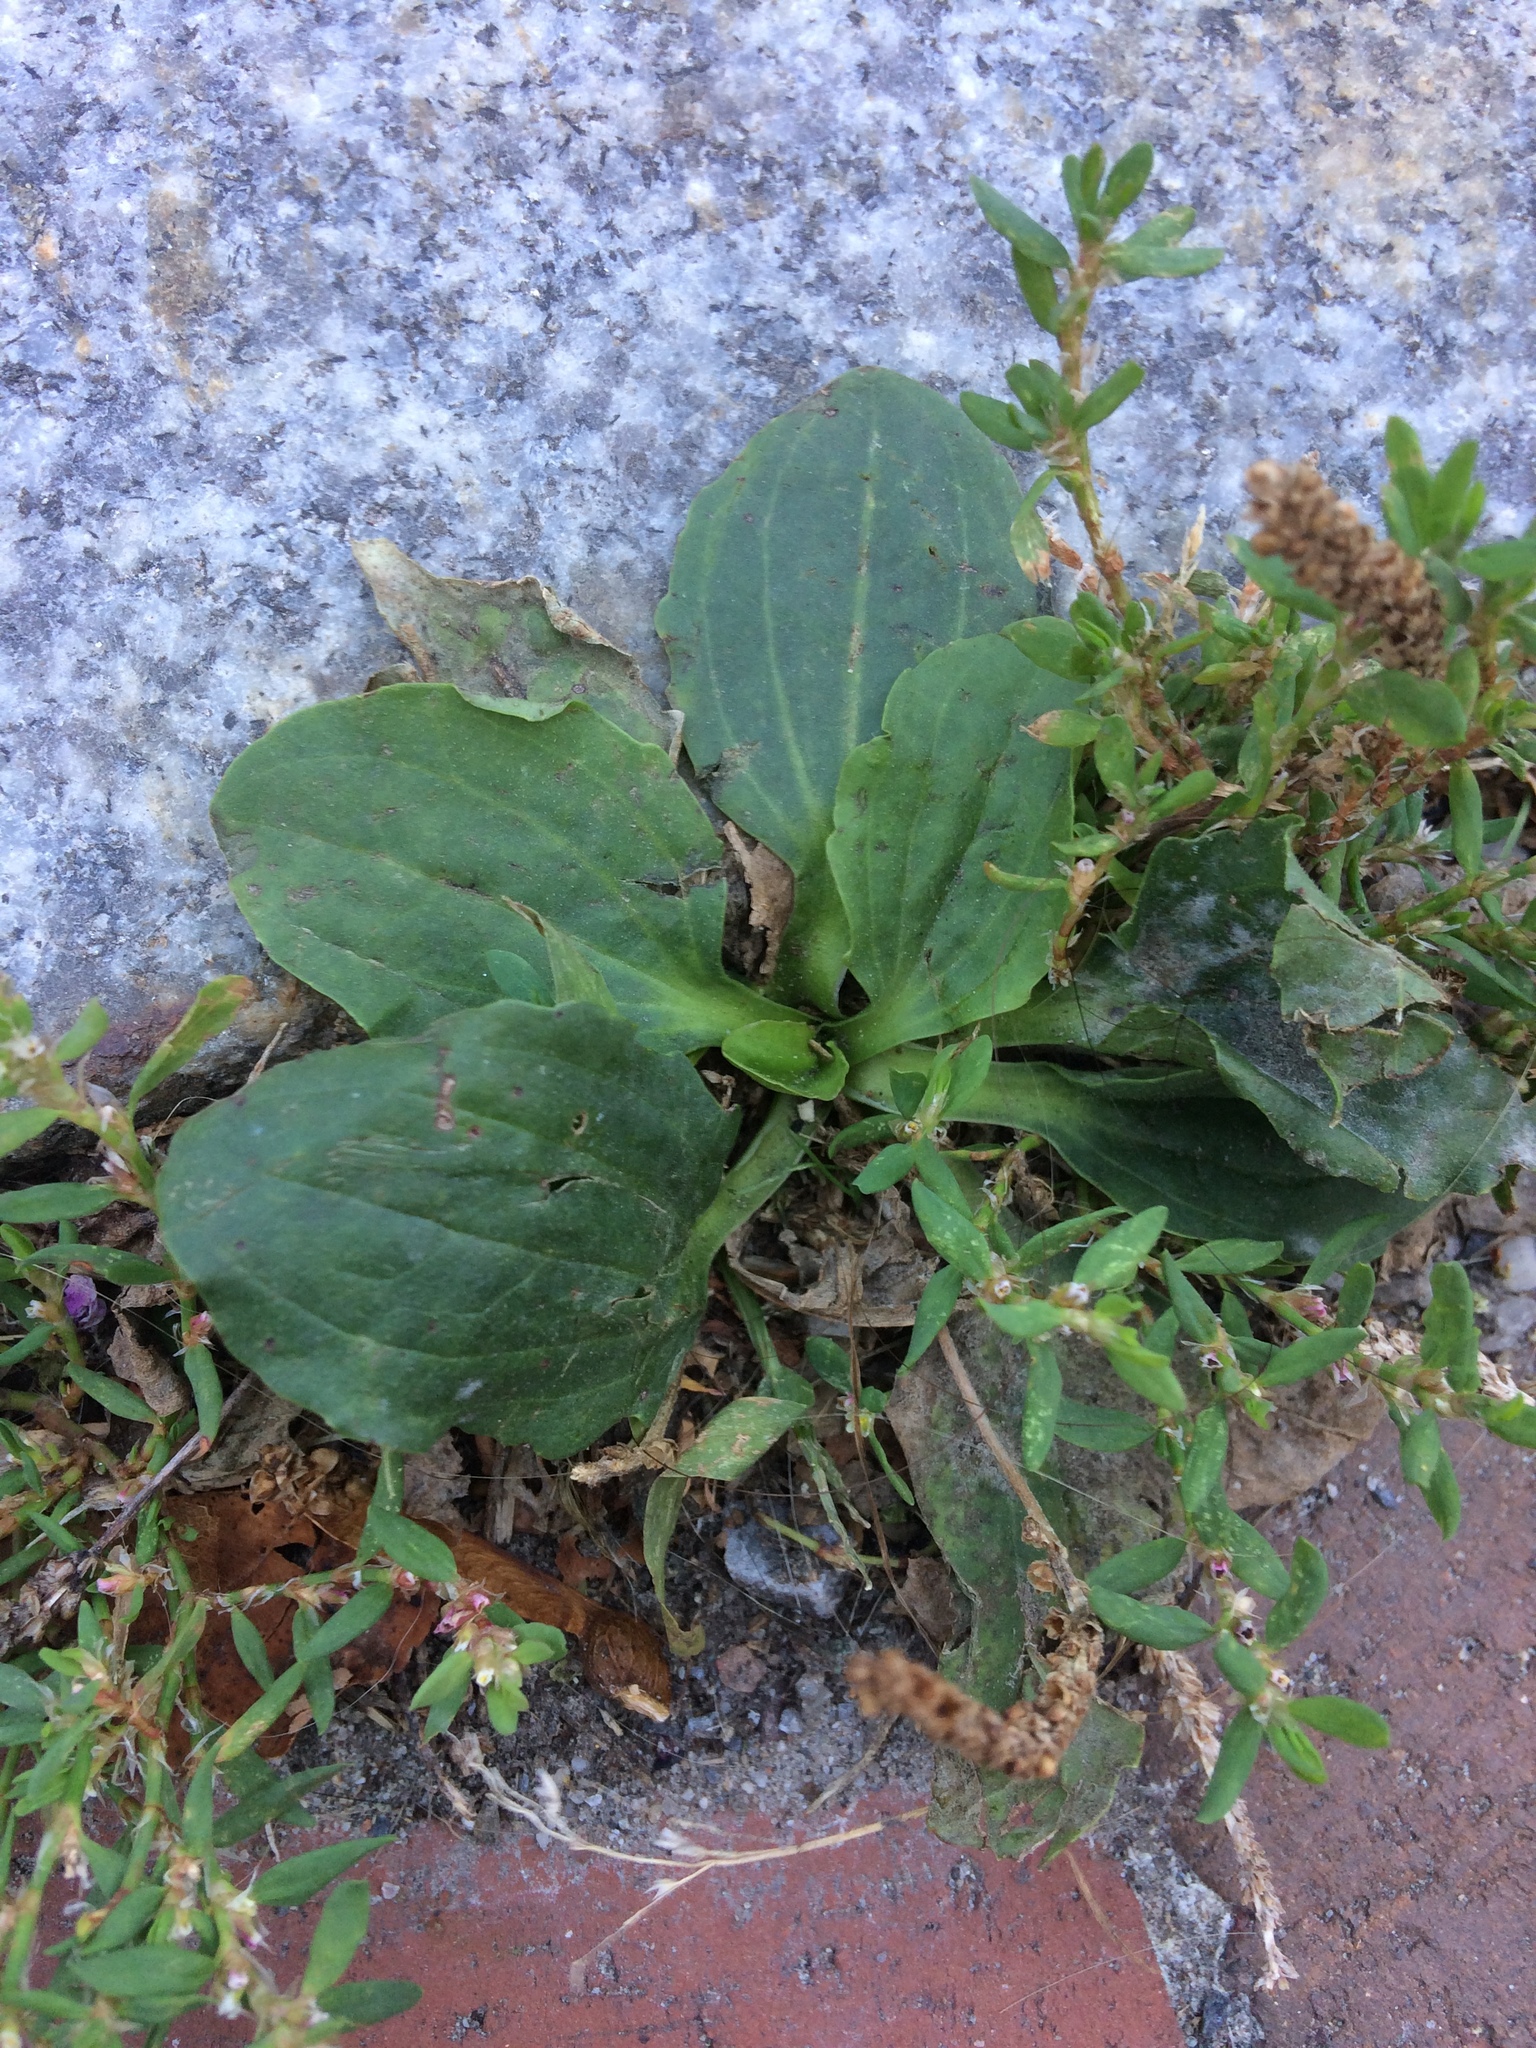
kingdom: Plantae
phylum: Tracheophyta
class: Magnoliopsida
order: Lamiales
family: Plantaginaceae
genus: Plantago
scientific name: Plantago major
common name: Common plantain
